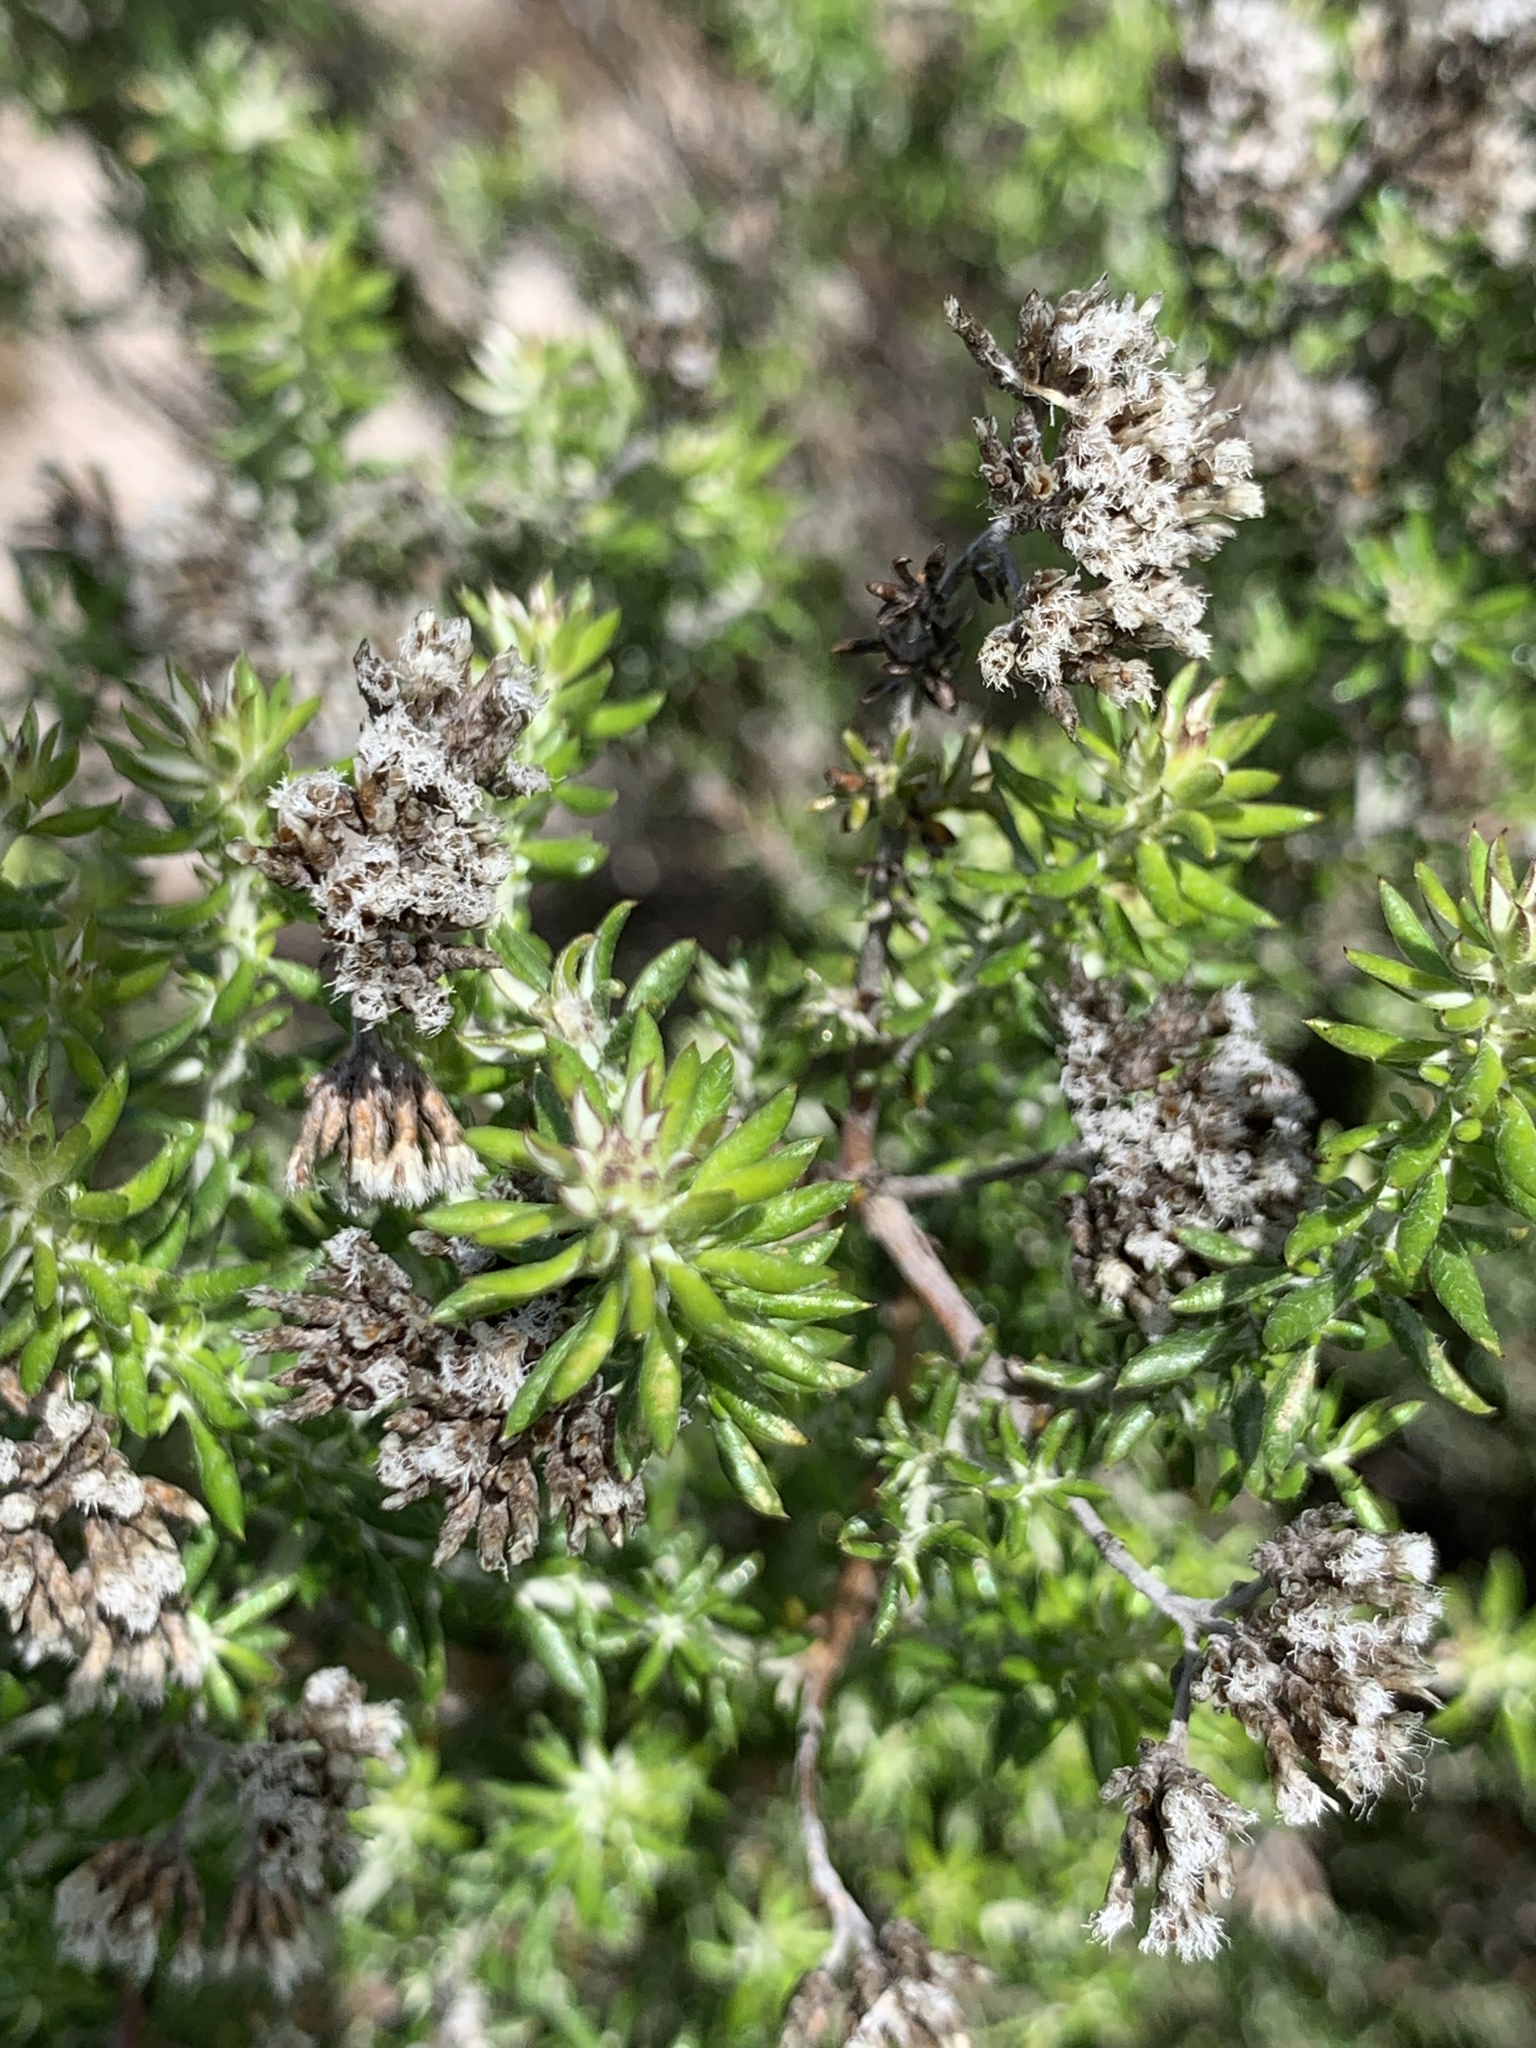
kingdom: Plantae
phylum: Tracheophyta
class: Magnoliopsida
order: Asterales
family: Asteraceae
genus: Metalasia
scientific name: Metalasia densa
